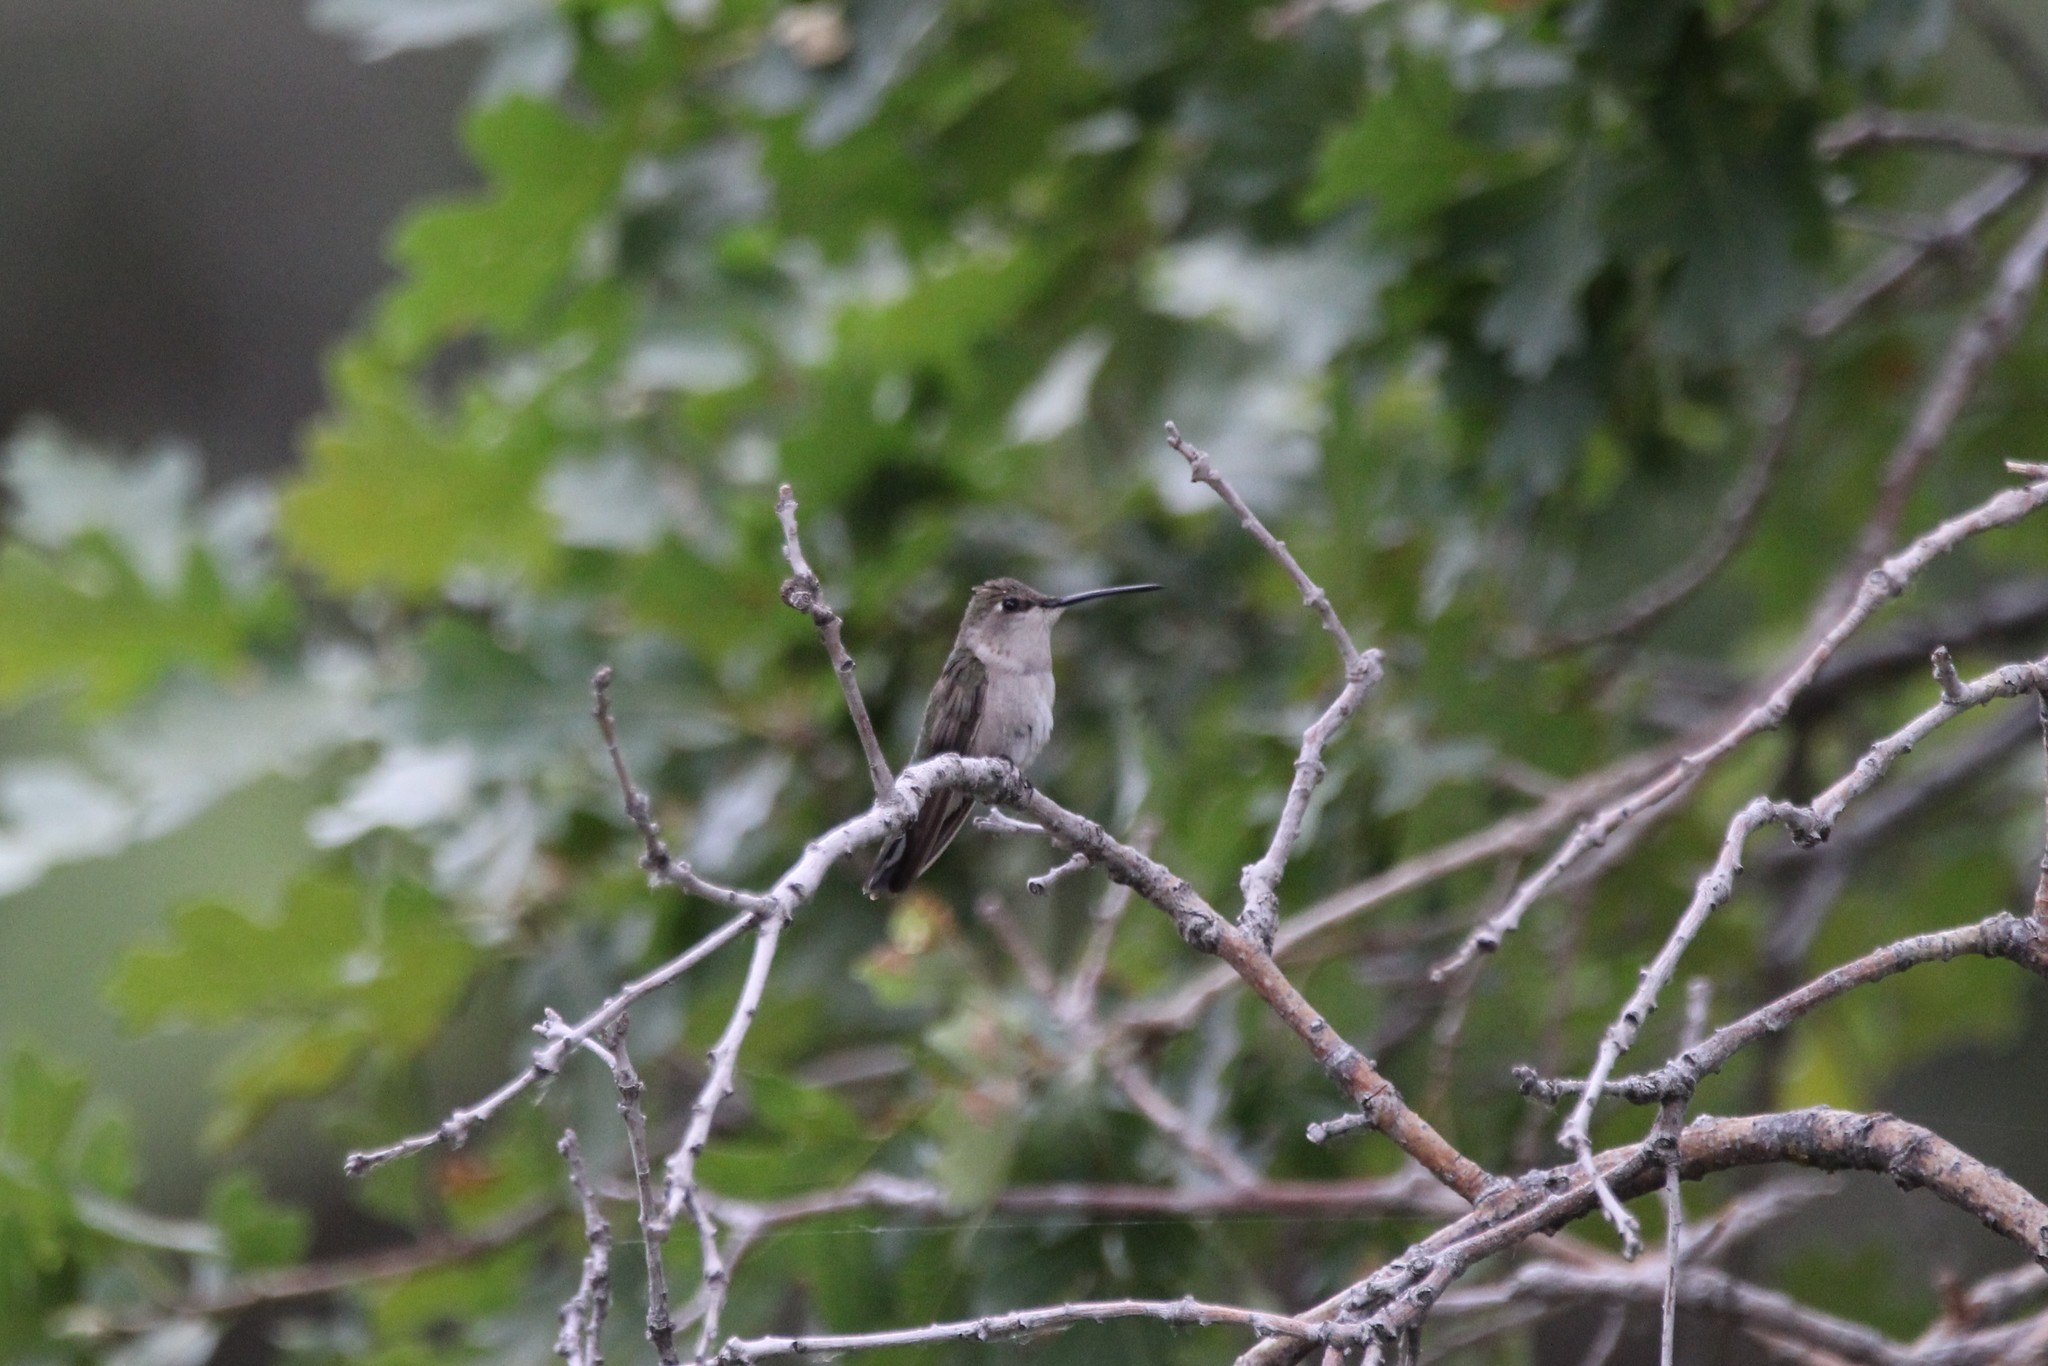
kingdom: Animalia
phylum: Chordata
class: Aves
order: Apodiformes
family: Trochilidae
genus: Archilochus
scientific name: Archilochus alexandri
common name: Black-chinned hummingbird
